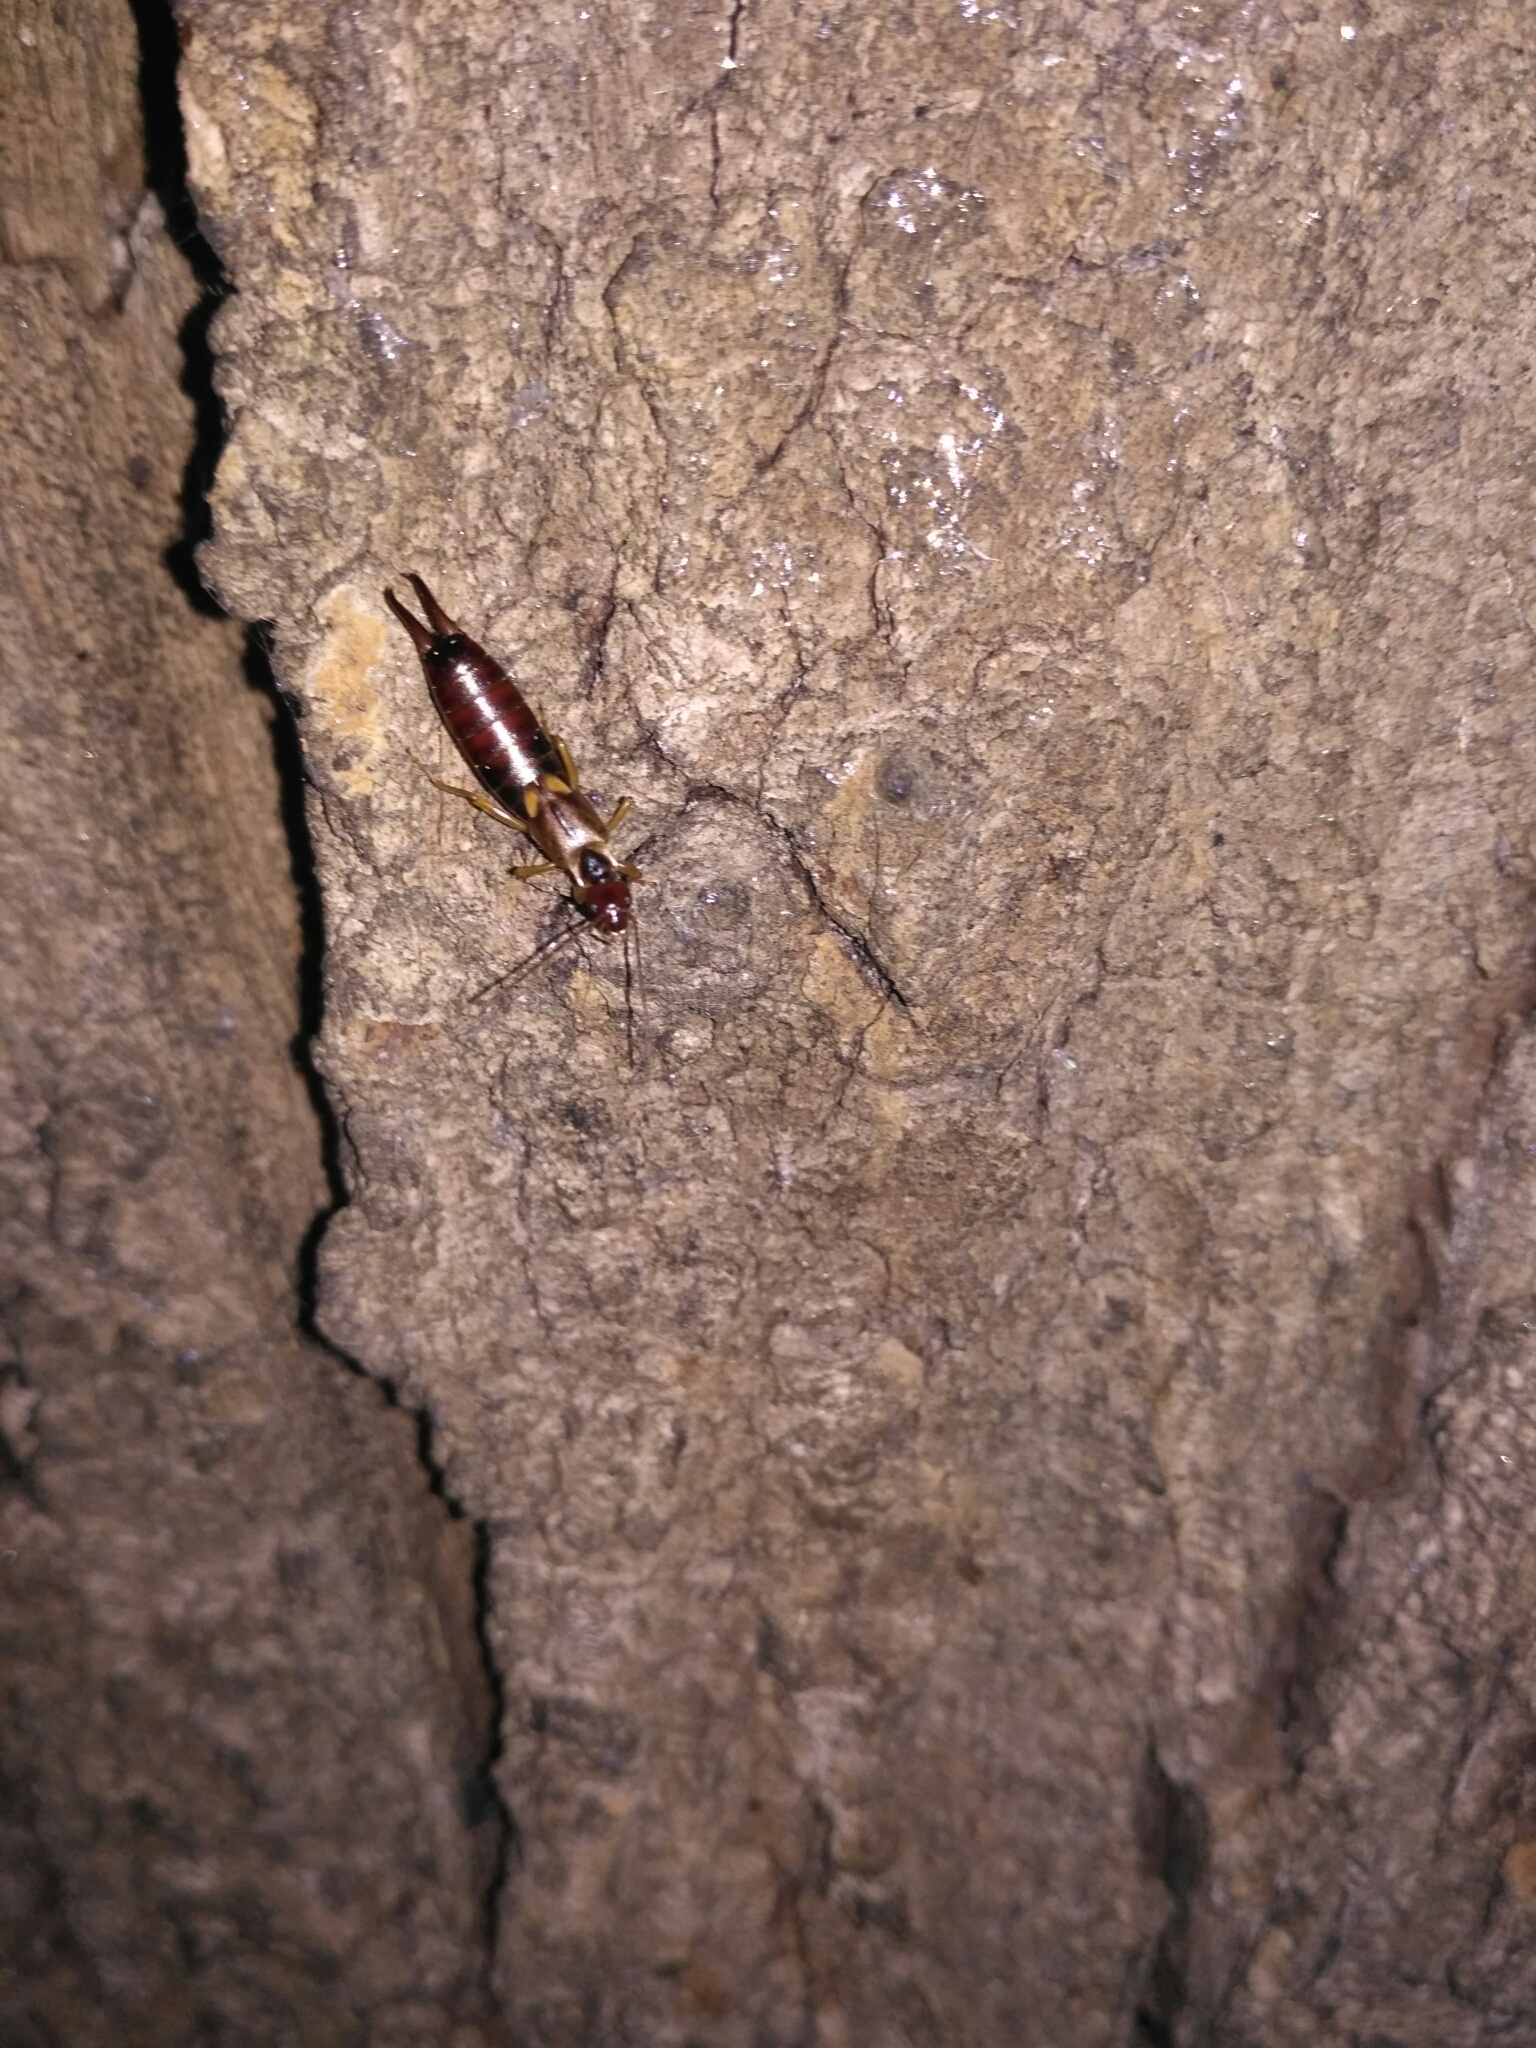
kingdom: Animalia
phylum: Arthropoda
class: Insecta
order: Dermaptera
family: Forficulidae
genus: Forficula
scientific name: Forficula
